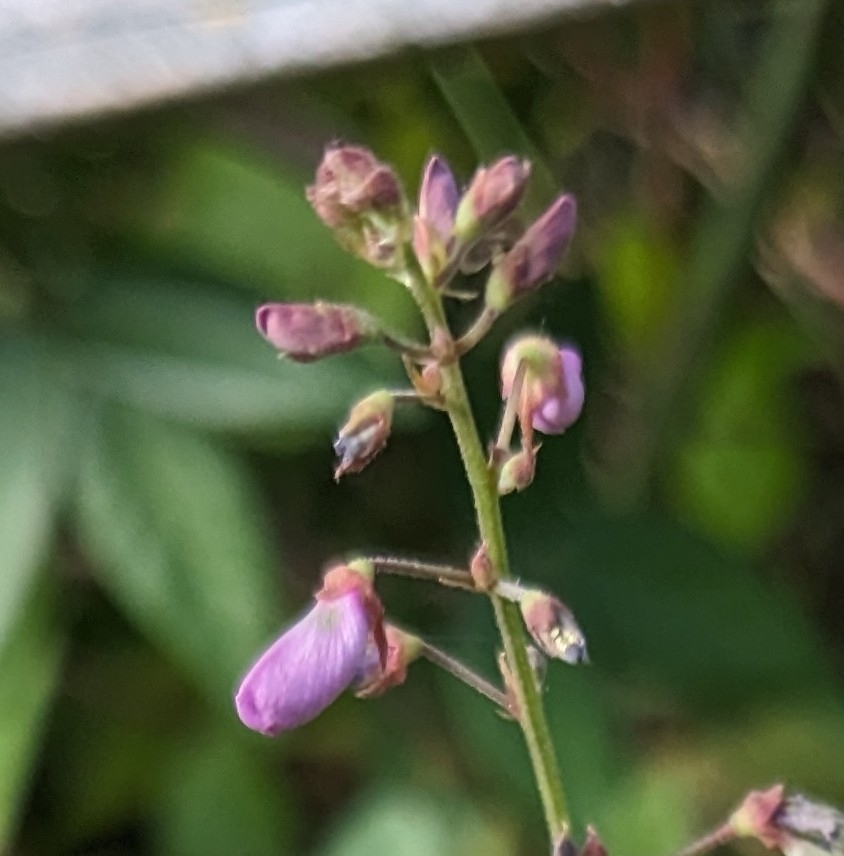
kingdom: Plantae
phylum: Tracheophyta
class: Magnoliopsida
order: Fabales
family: Fabaceae
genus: Desmodium
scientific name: Desmodium paniculatum
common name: Panicled tick-clover
